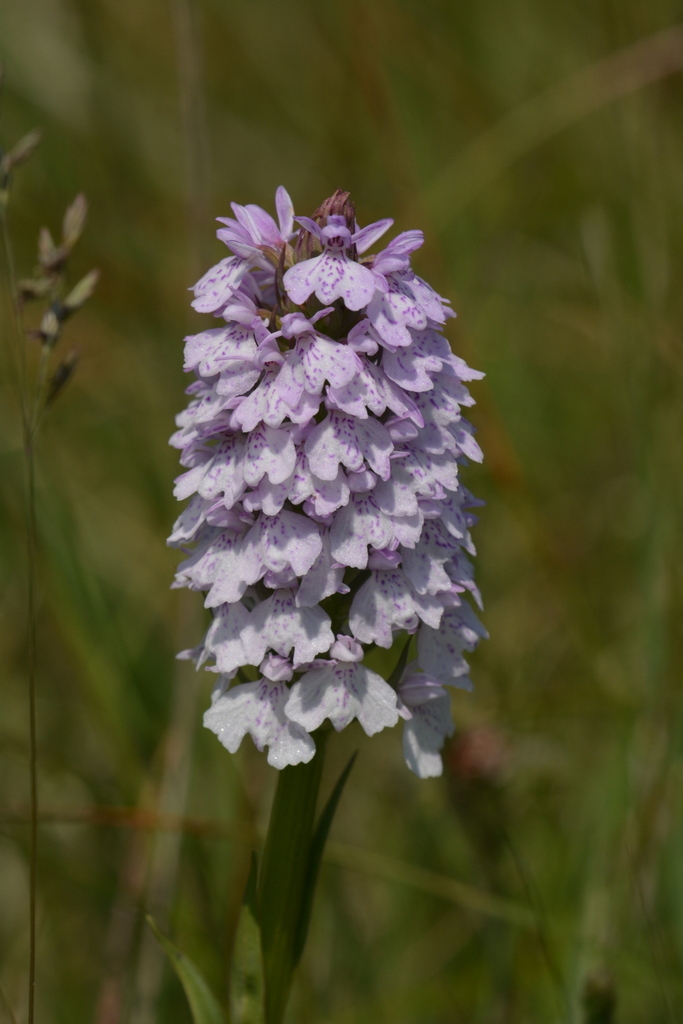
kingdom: Plantae
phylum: Tracheophyta
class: Liliopsida
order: Asparagales
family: Orchidaceae
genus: Dactylorhiza
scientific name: Dactylorhiza maculata
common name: Heath spotted-orchid
